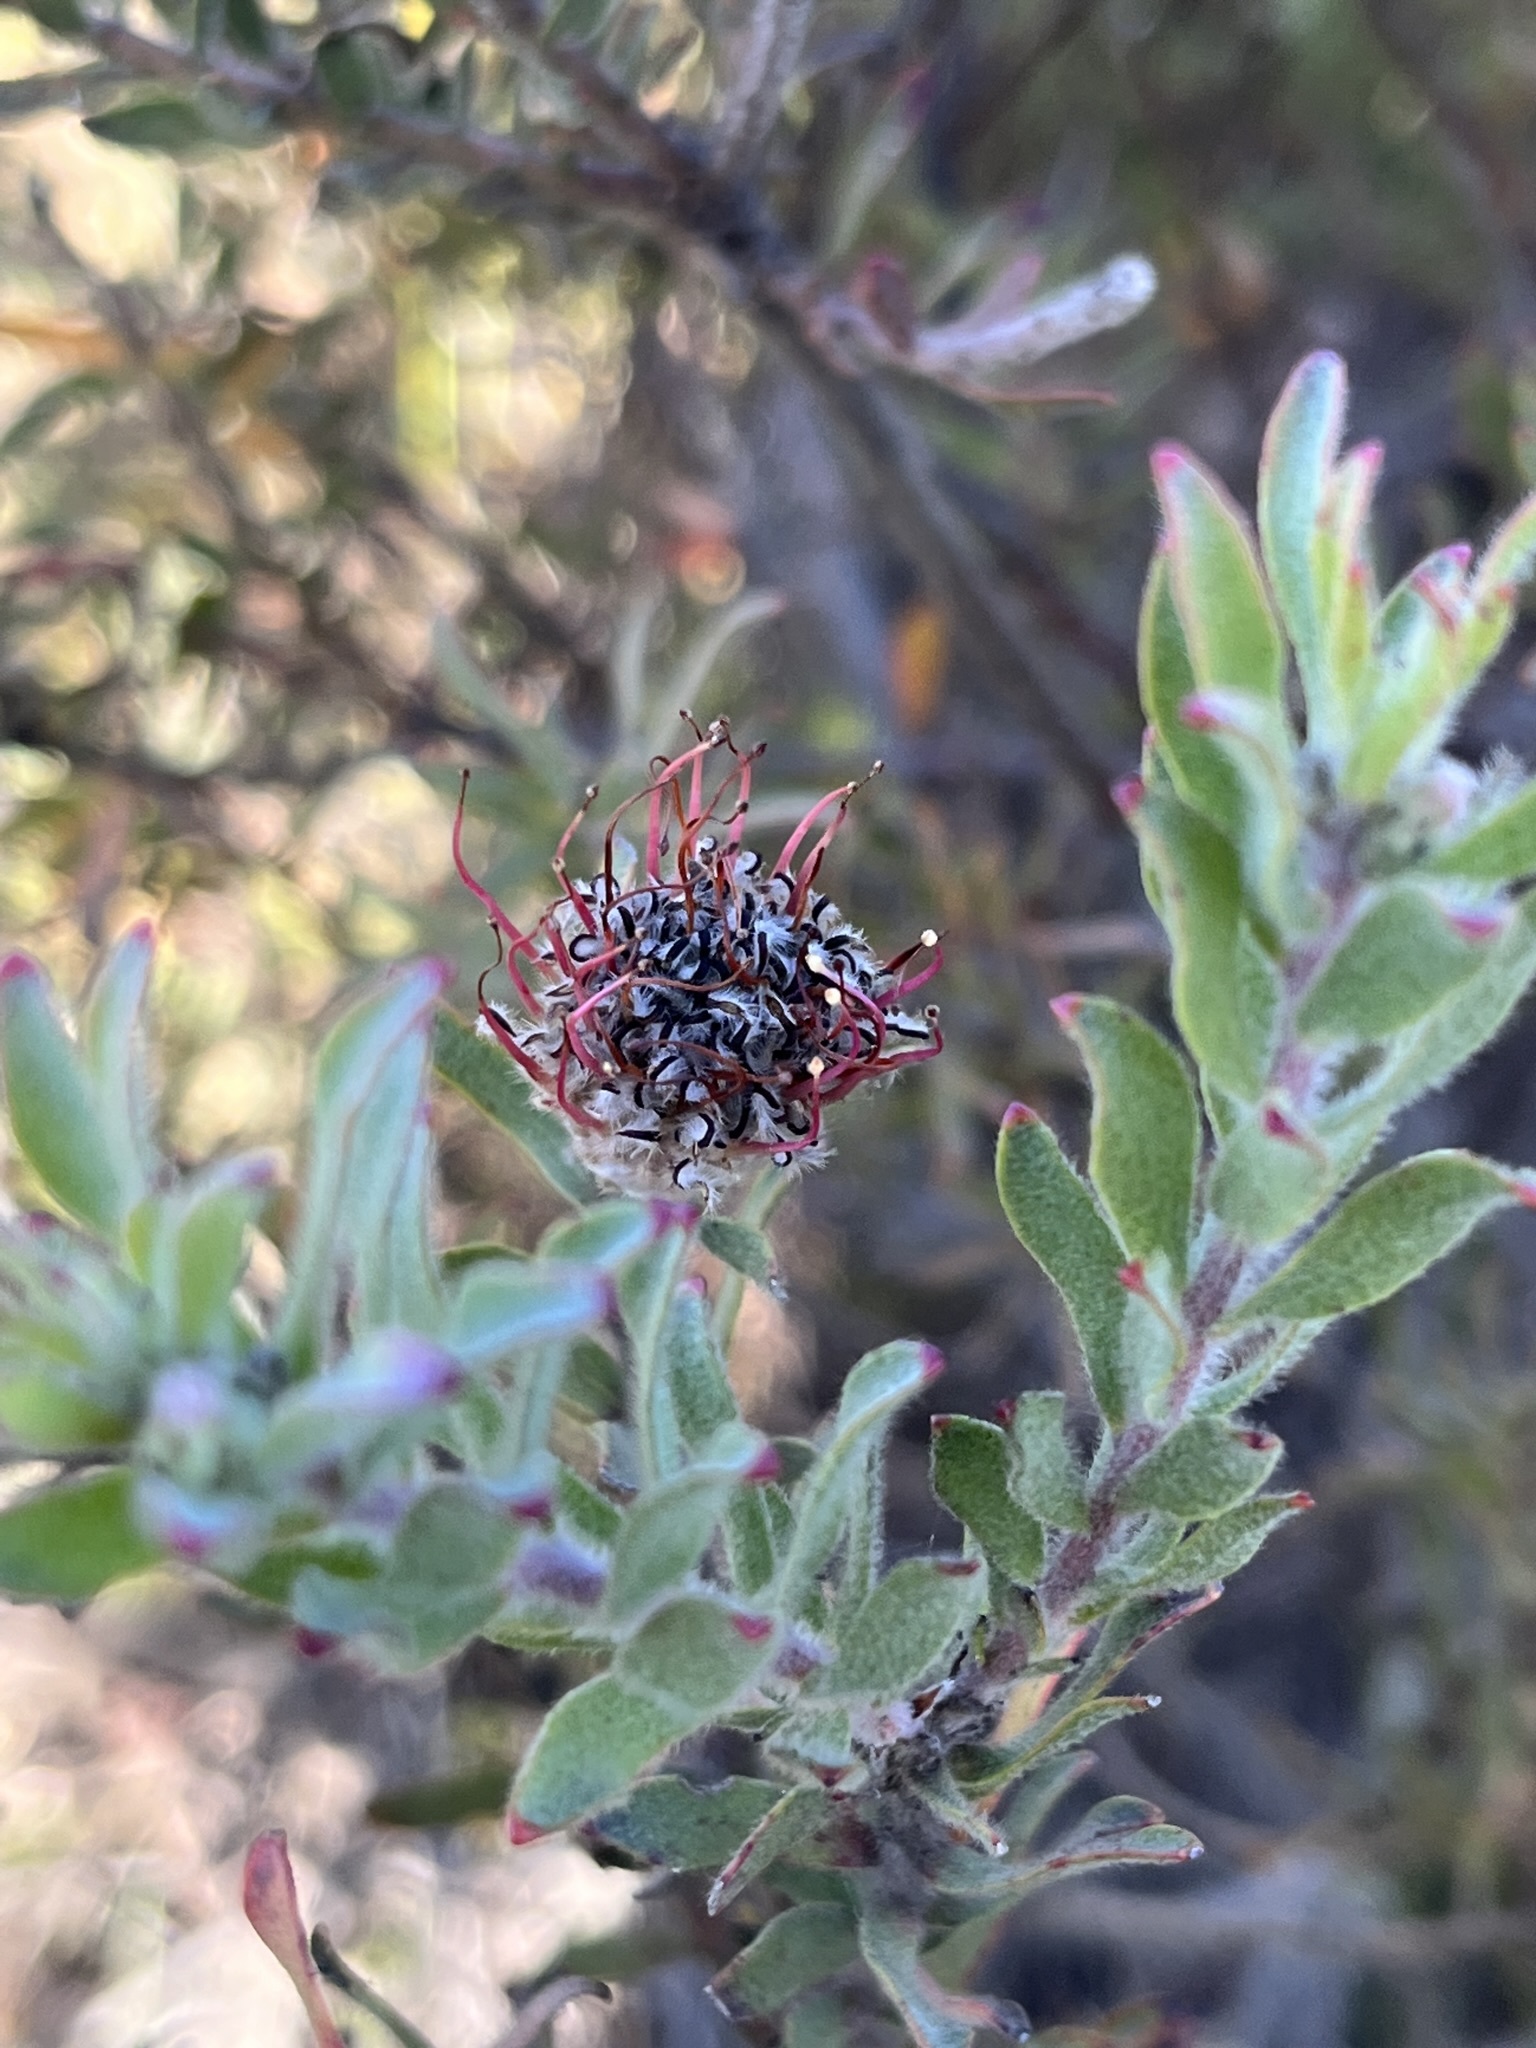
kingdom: Plantae
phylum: Tracheophyta
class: Magnoliopsida
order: Proteales
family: Proteaceae
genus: Leucospermum
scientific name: Leucospermum calligerum
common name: Arid pincushion
